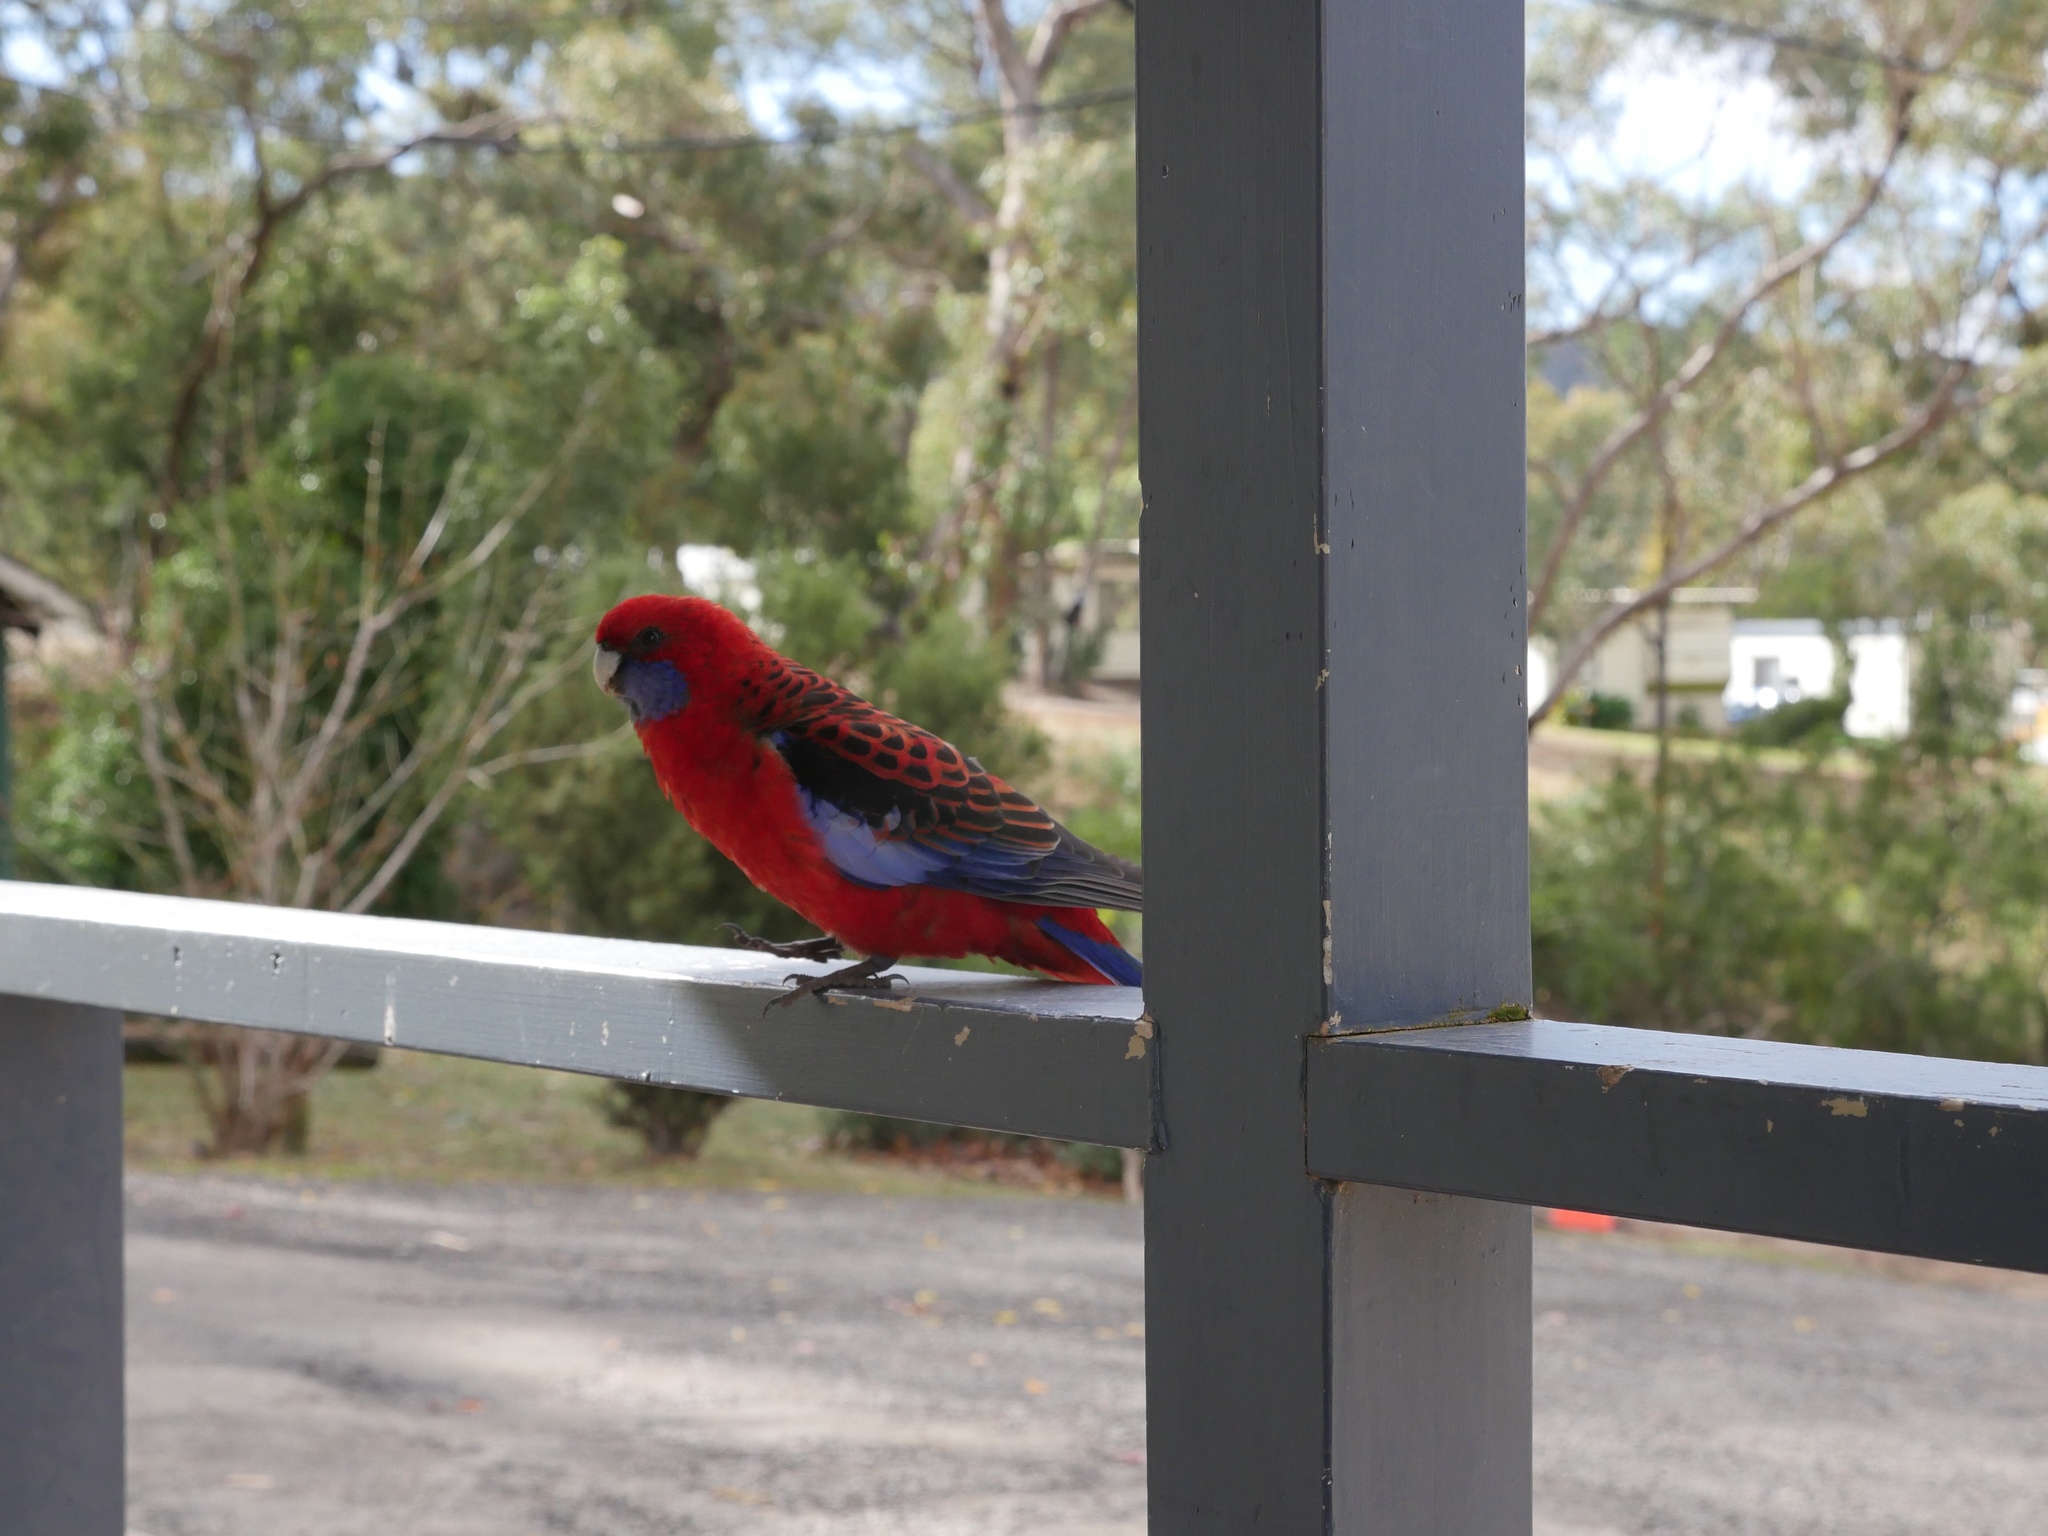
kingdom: Animalia
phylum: Chordata
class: Aves
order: Psittaciformes
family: Psittacidae
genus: Platycercus
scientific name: Platycercus elegans
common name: Crimson rosella
